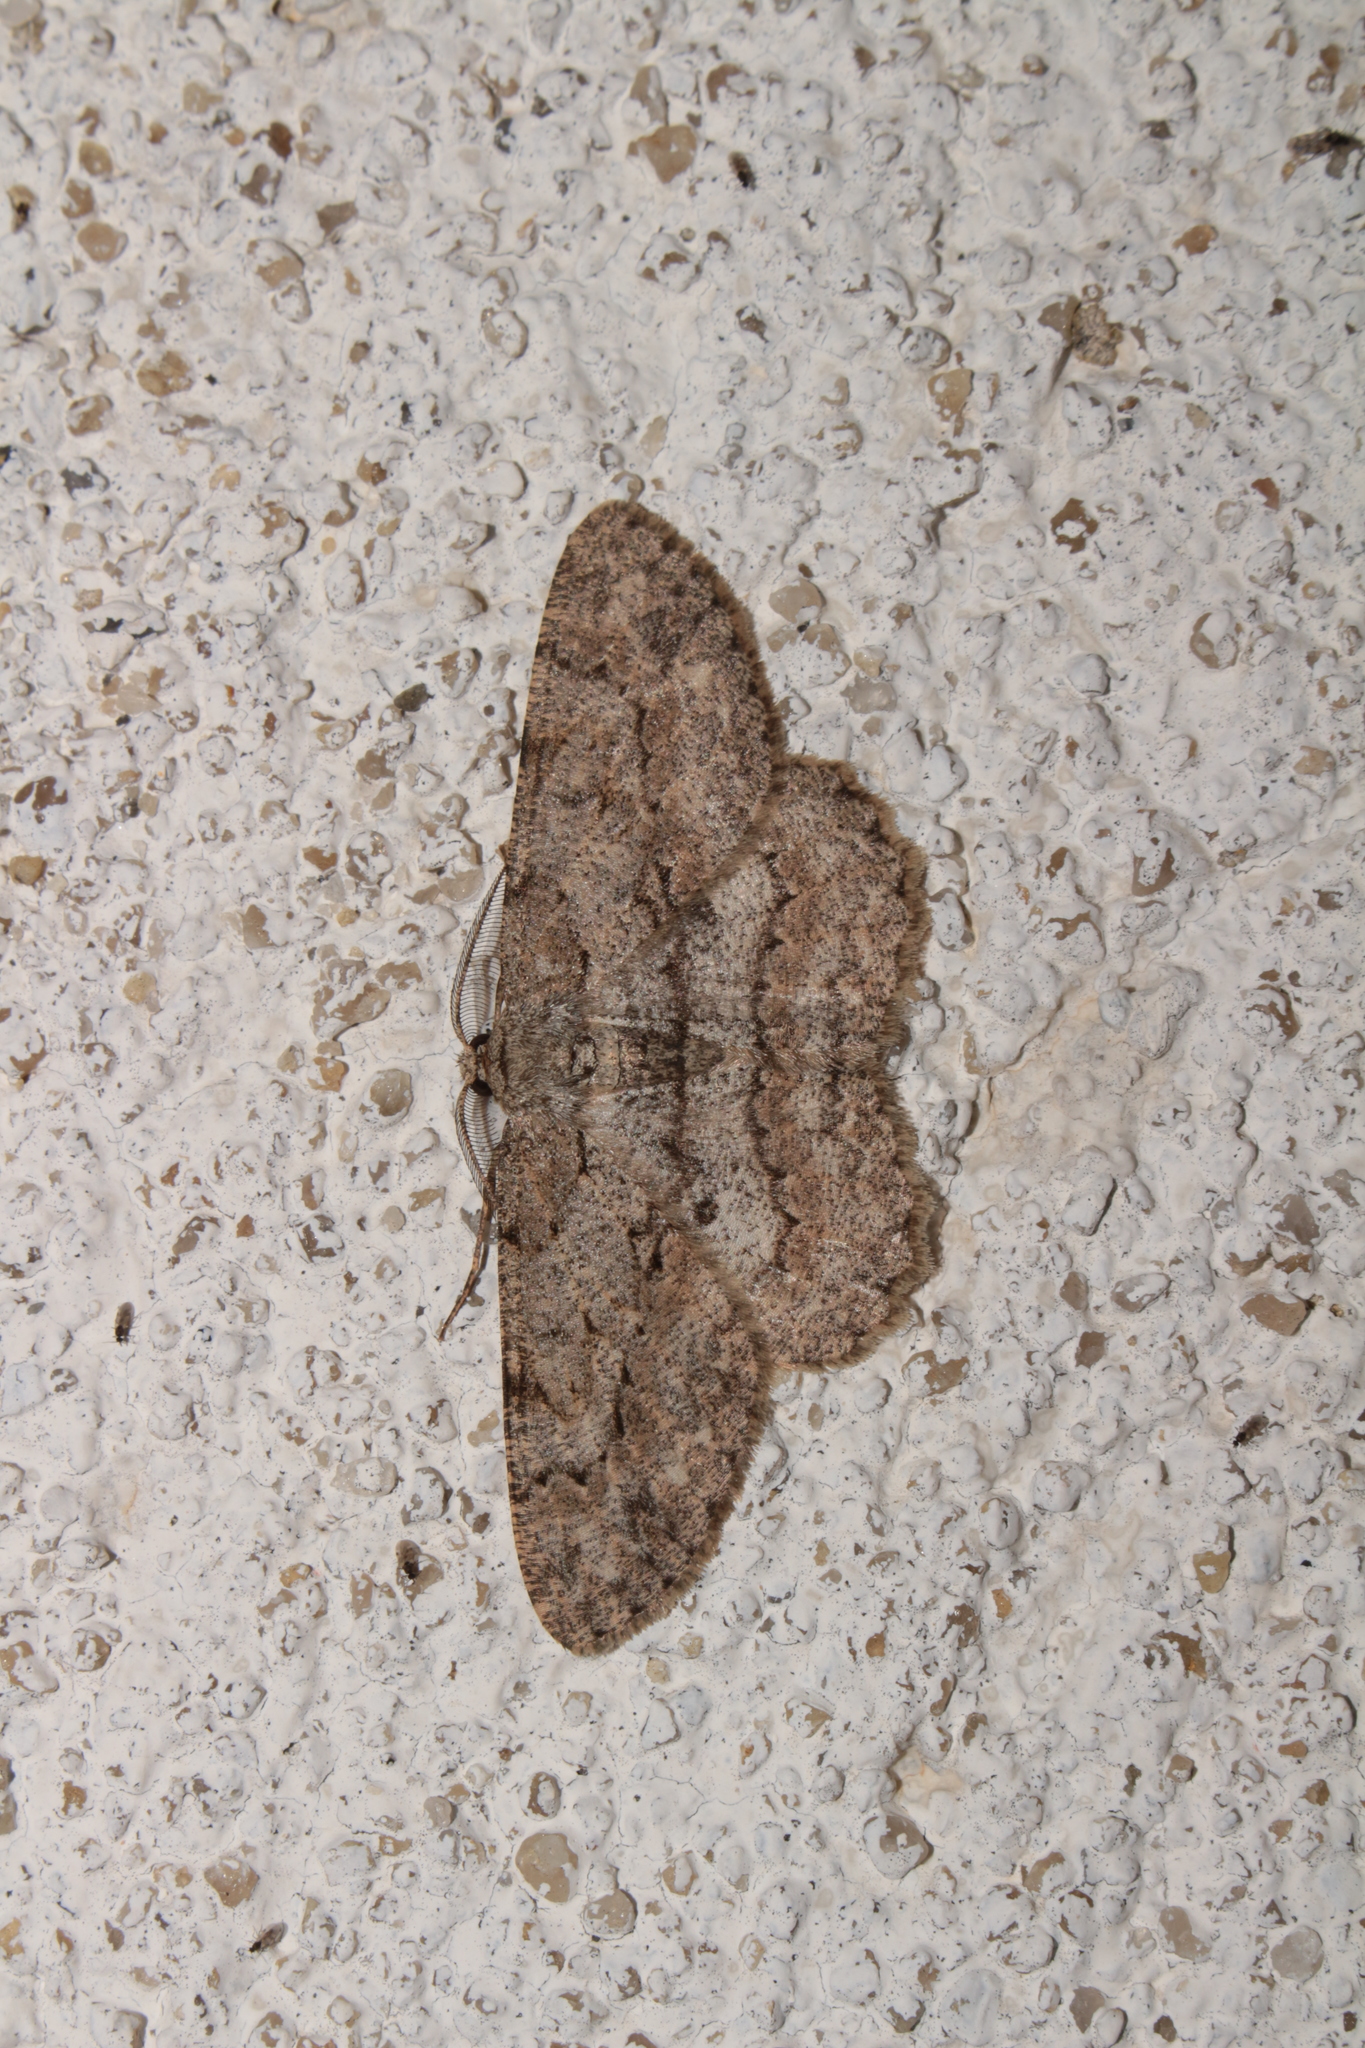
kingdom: Animalia
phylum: Arthropoda
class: Insecta
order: Lepidoptera
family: Geometridae
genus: Hypomecis
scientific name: Hypomecis punctinalis
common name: Pale oak beauty
